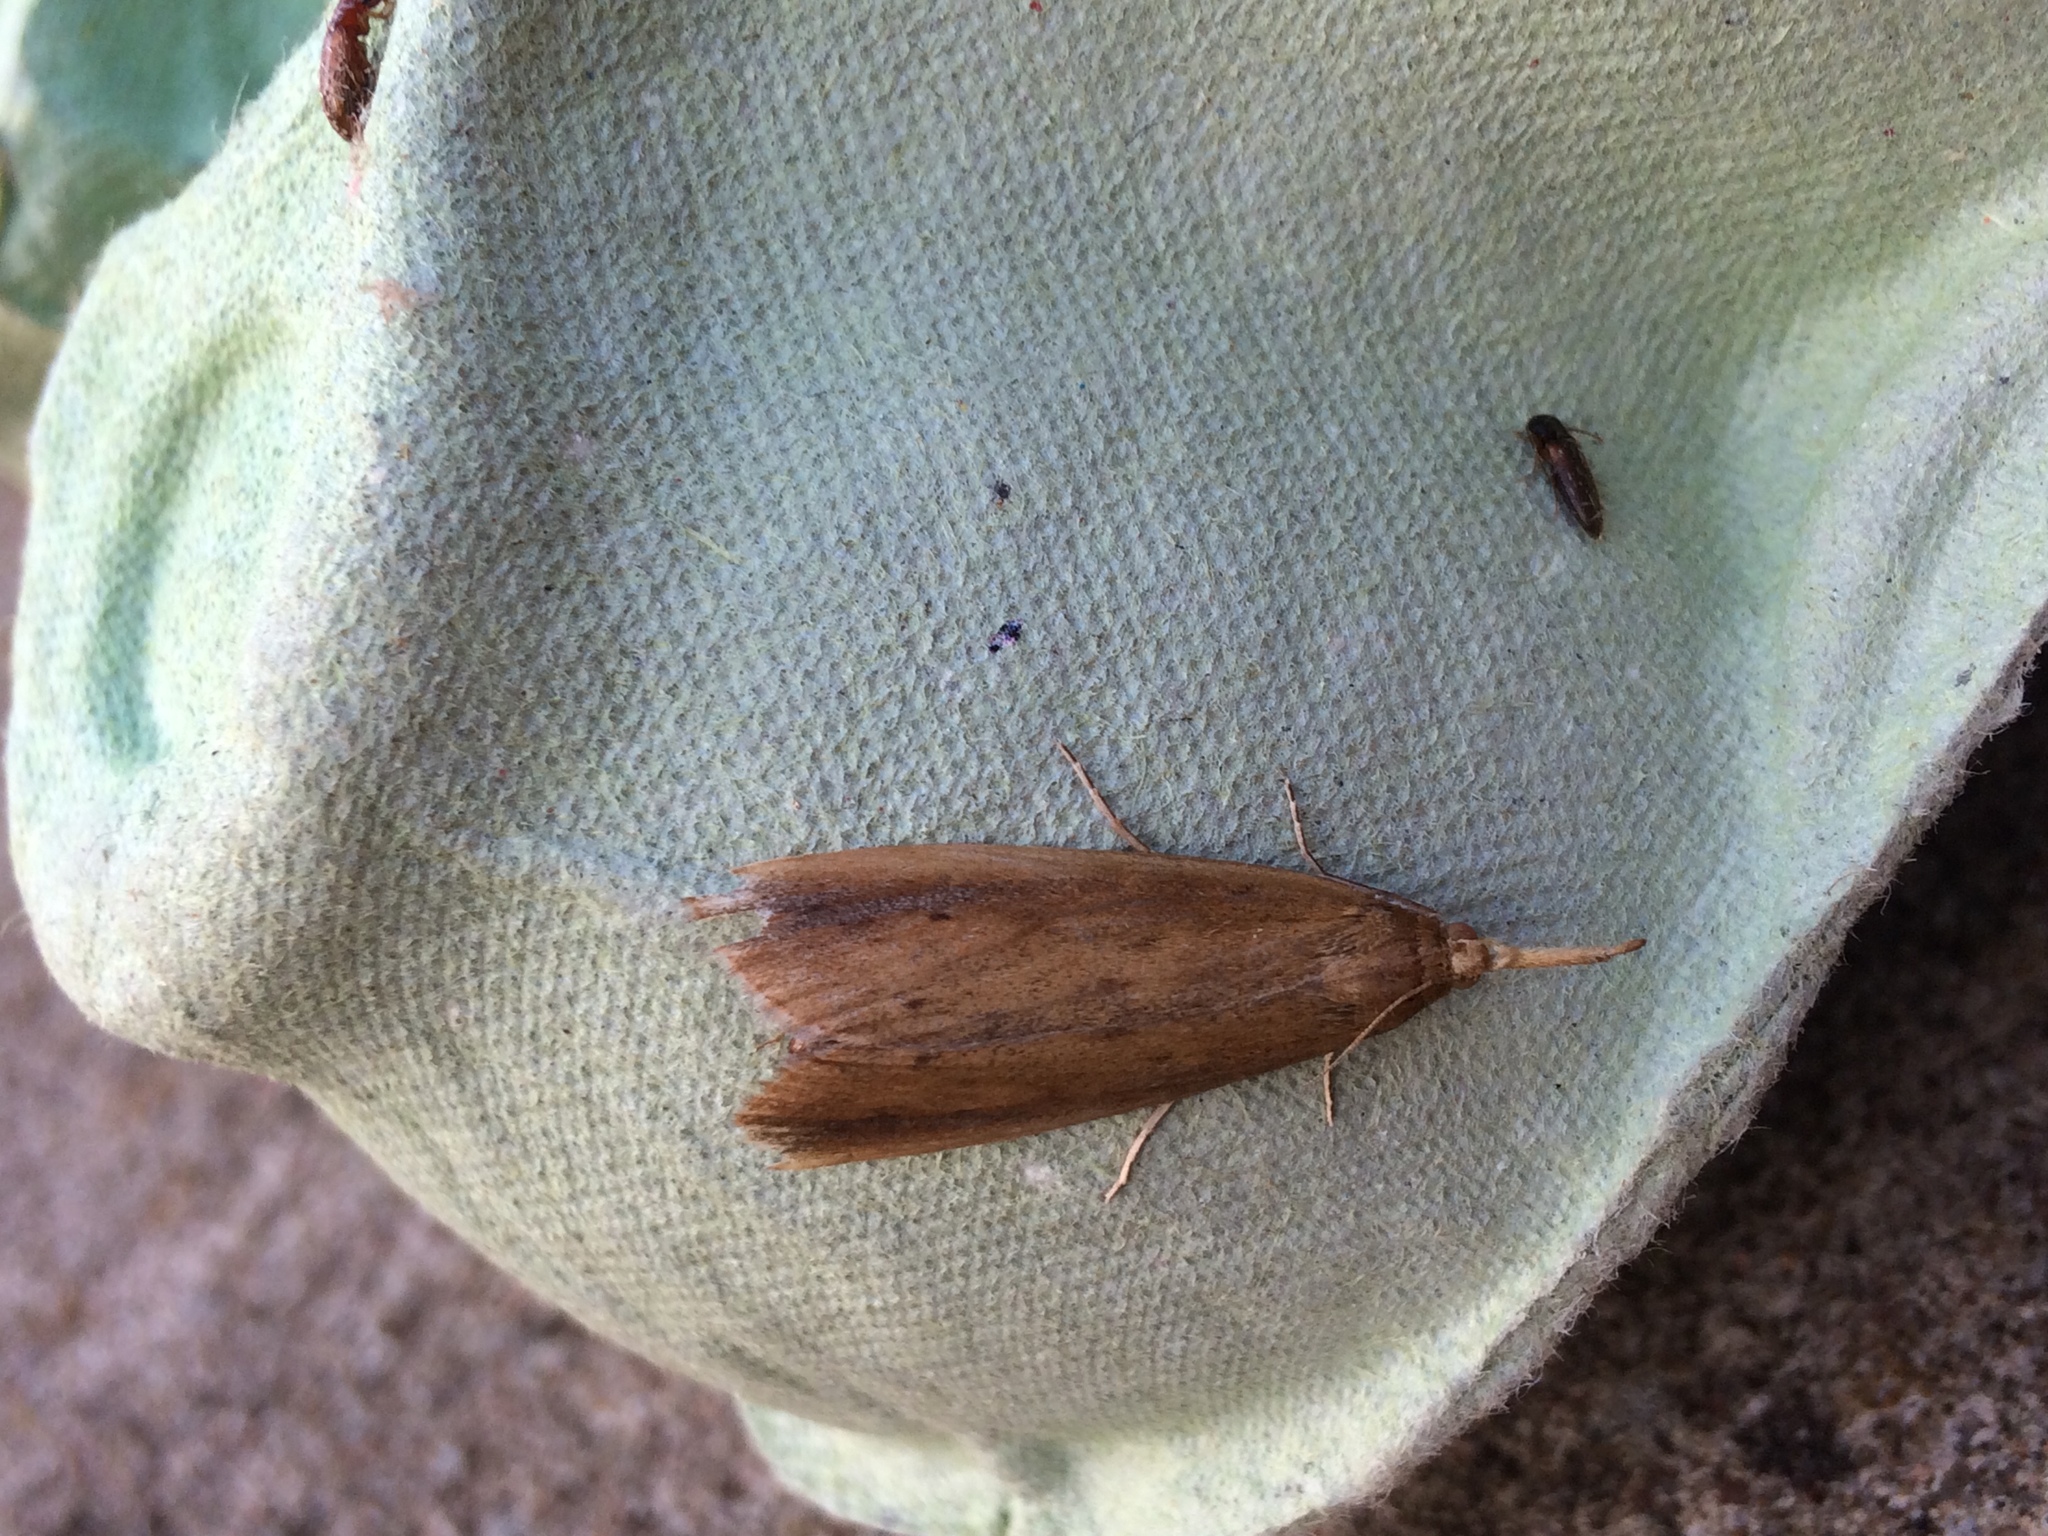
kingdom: Animalia
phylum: Arthropoda
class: Insecta
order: Lepidoptera
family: Crambidae
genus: Donacaula
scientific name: Donacaula forficella
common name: Pale water-veneer
